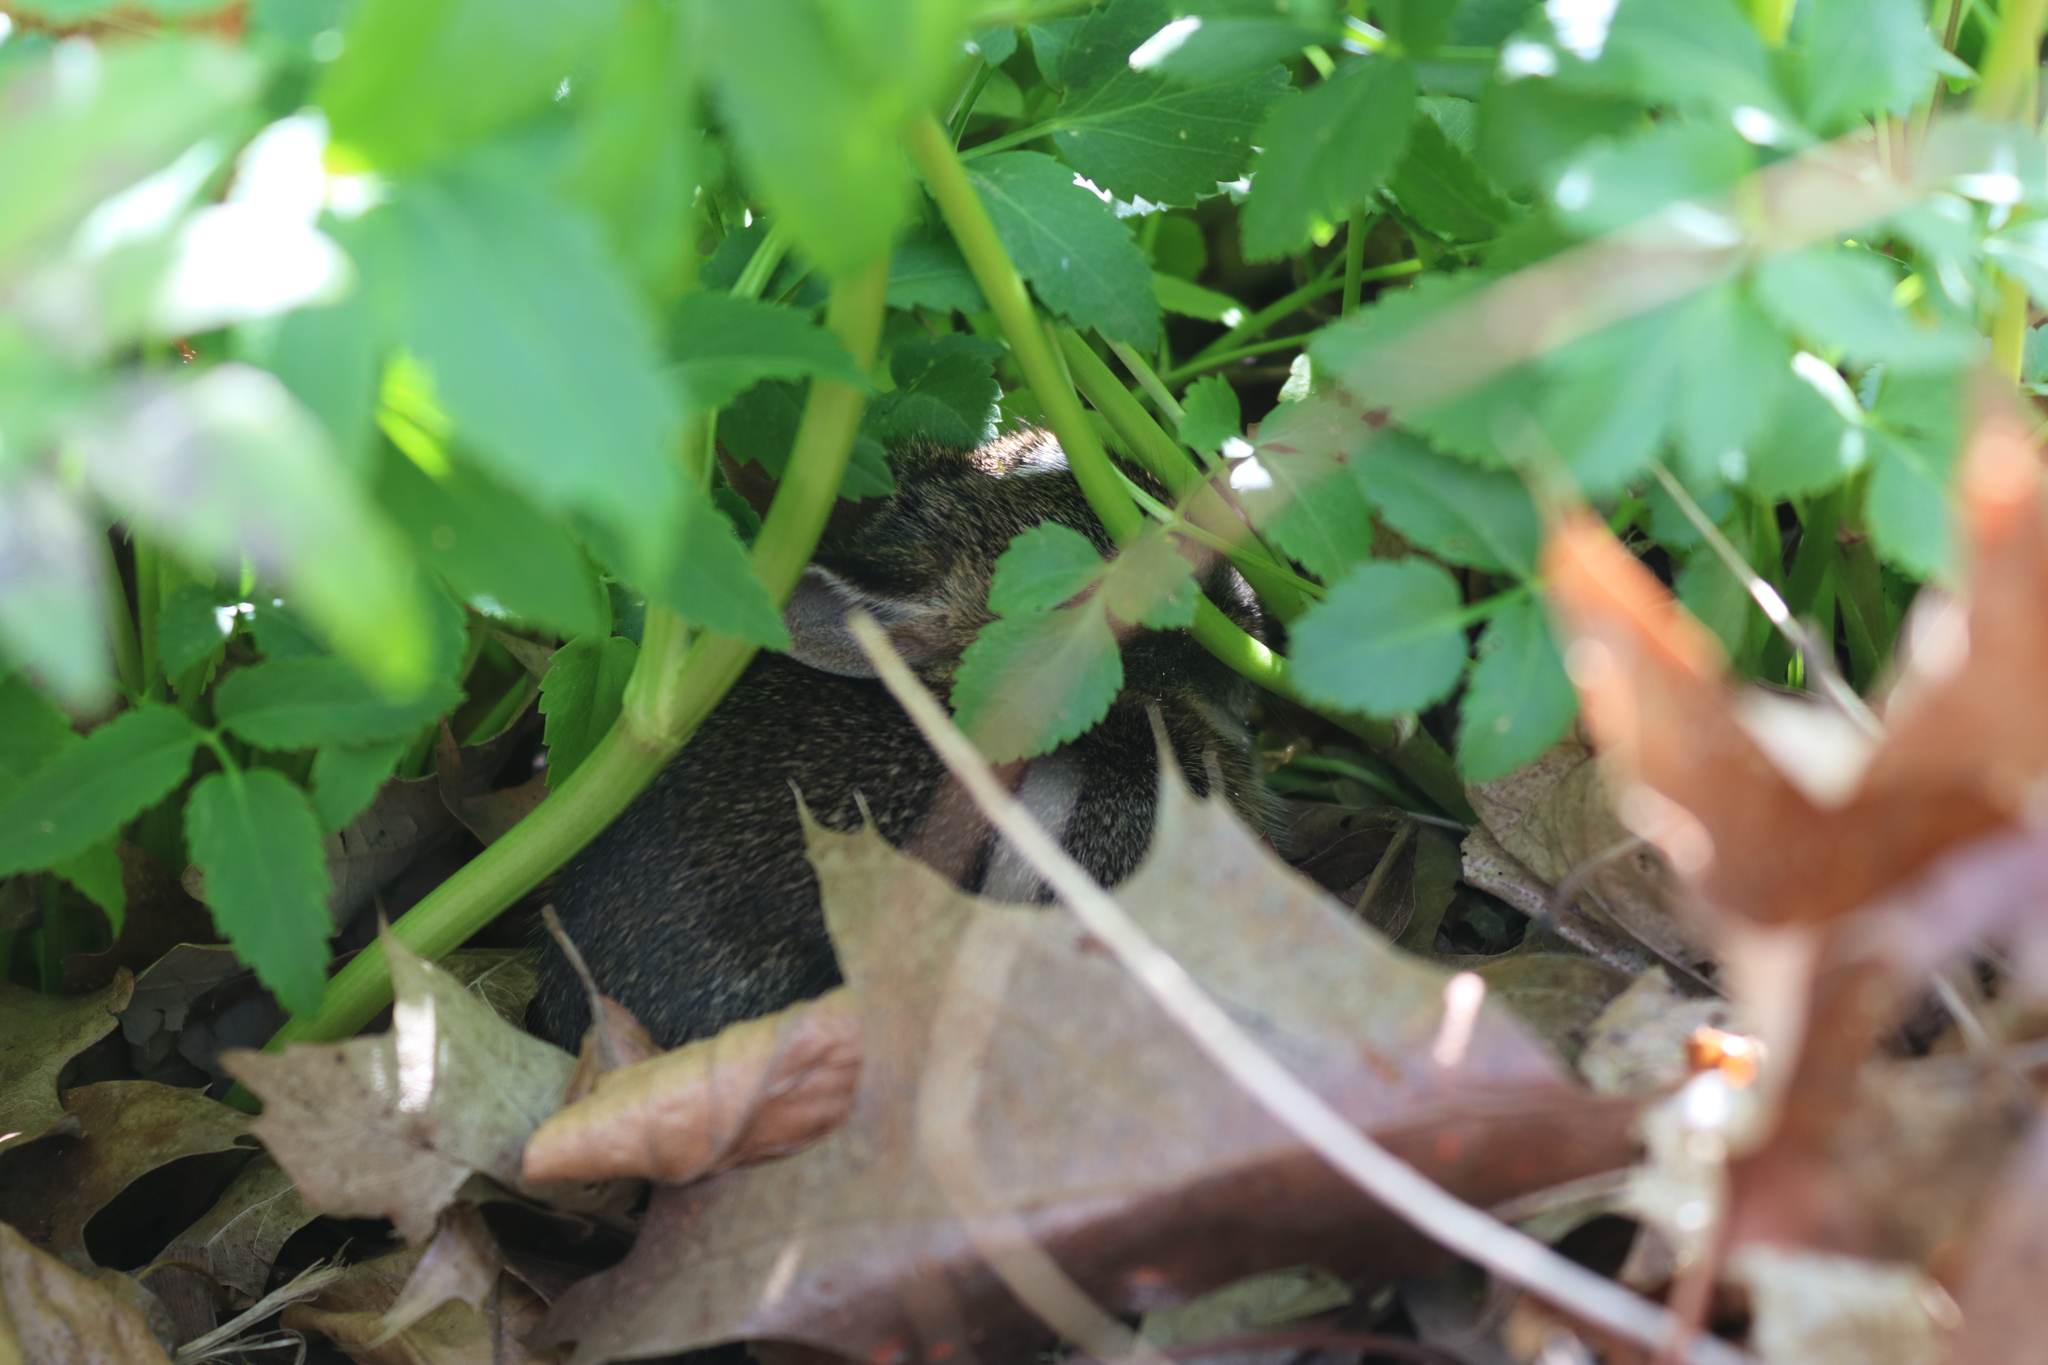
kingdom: Animalia
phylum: Chordata
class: Mammalia
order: Lagomorpha
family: Leporidae
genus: Sylvilagus
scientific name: Sylvilagus floridanus
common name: Eastern cottontail
